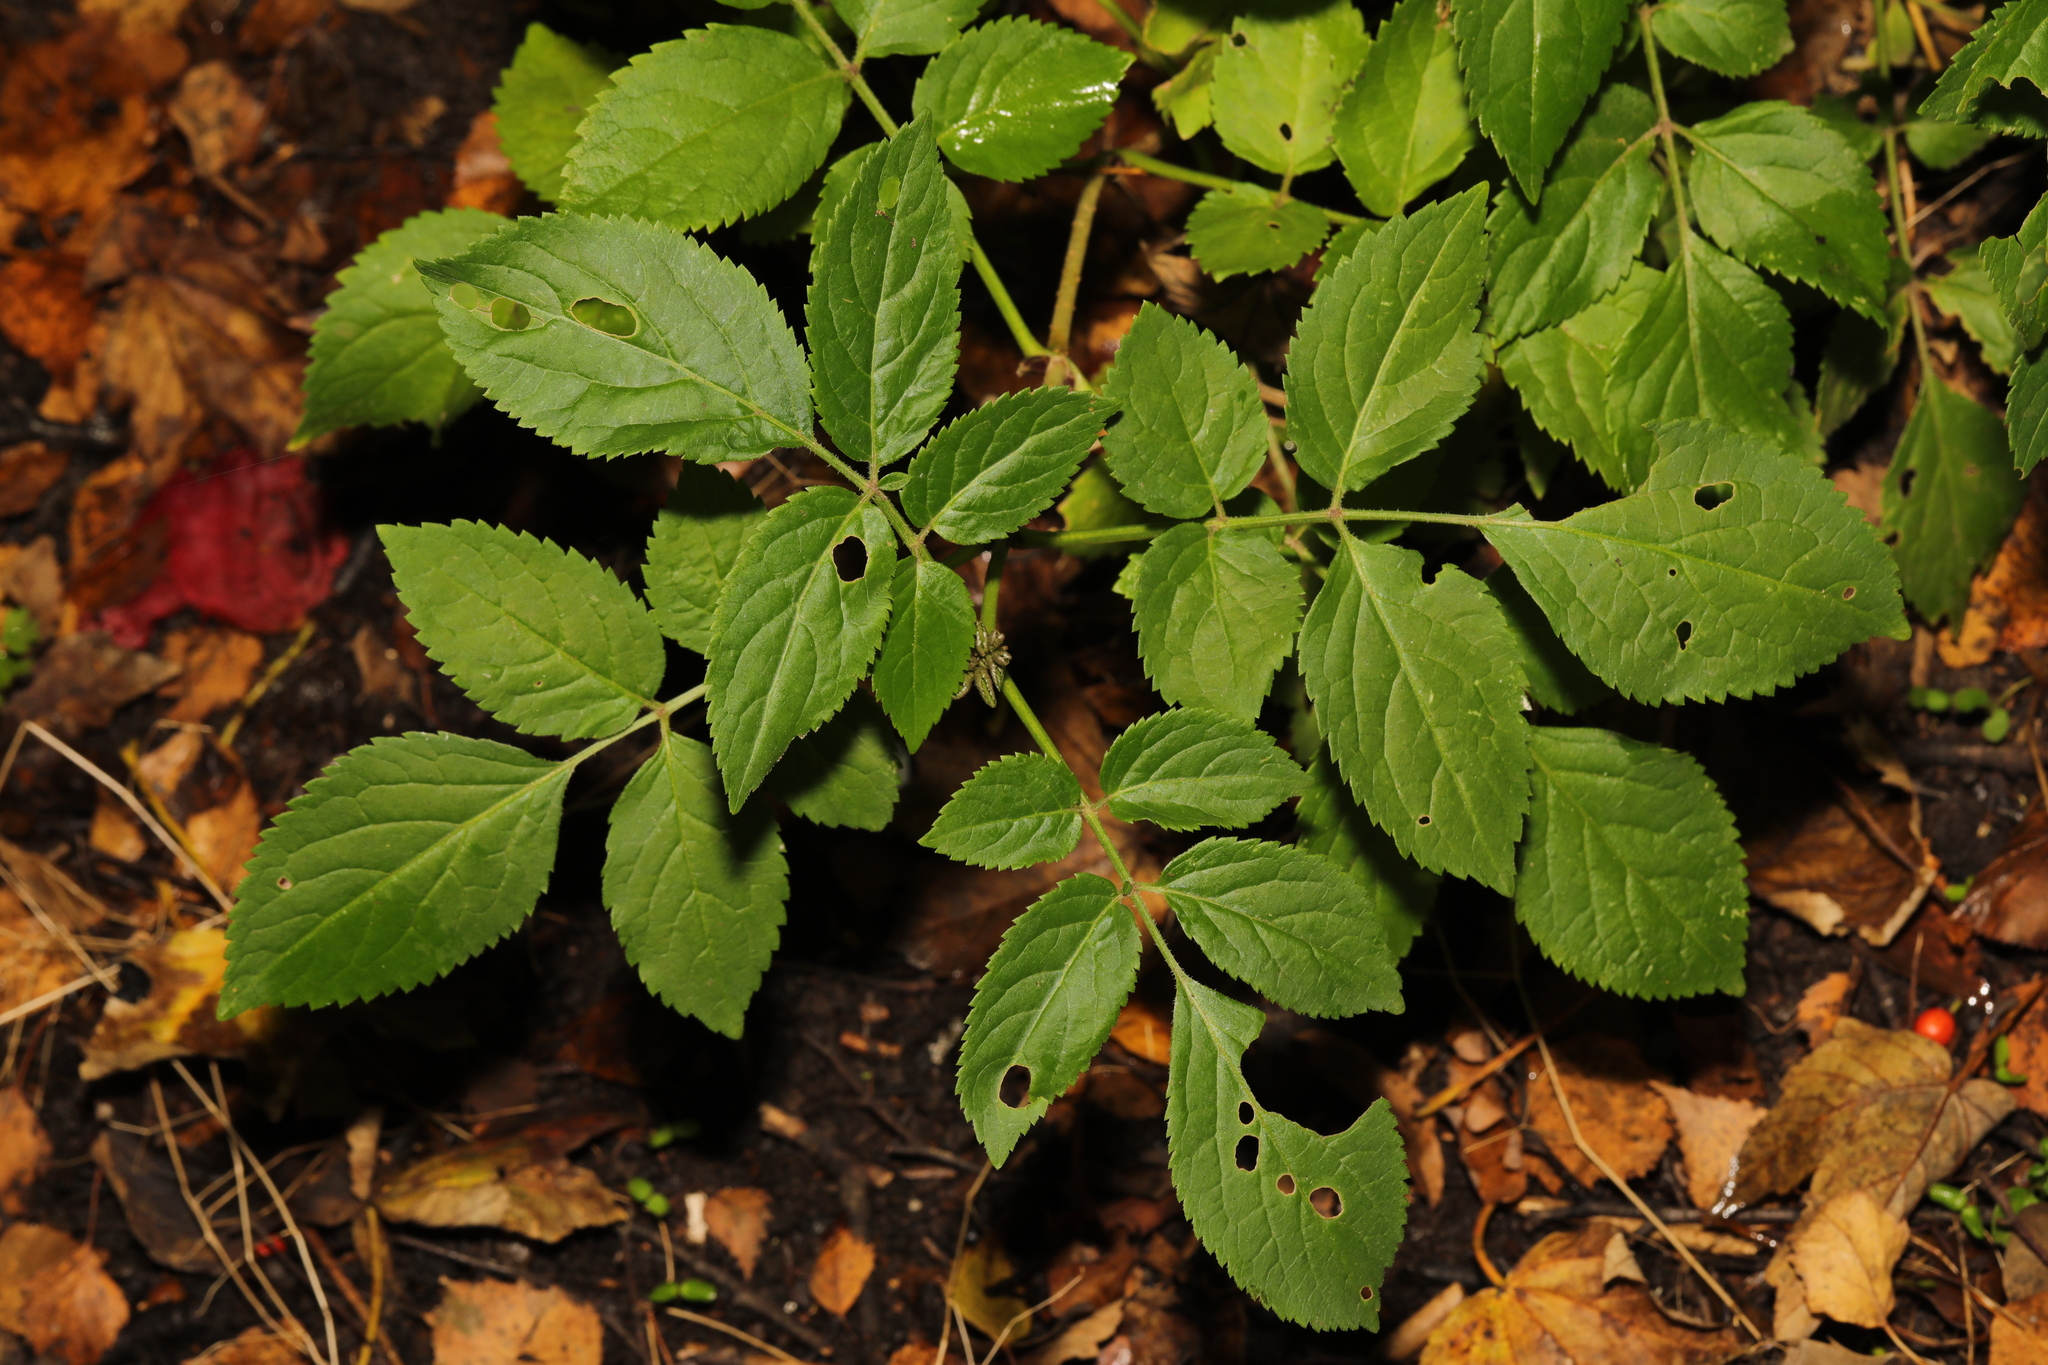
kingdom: Plantae
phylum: Tracheophyta
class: Magnoliopsida
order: Dipsacales
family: Viburnaceae
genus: Sambucus
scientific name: Sambucus nigra
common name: Elder
